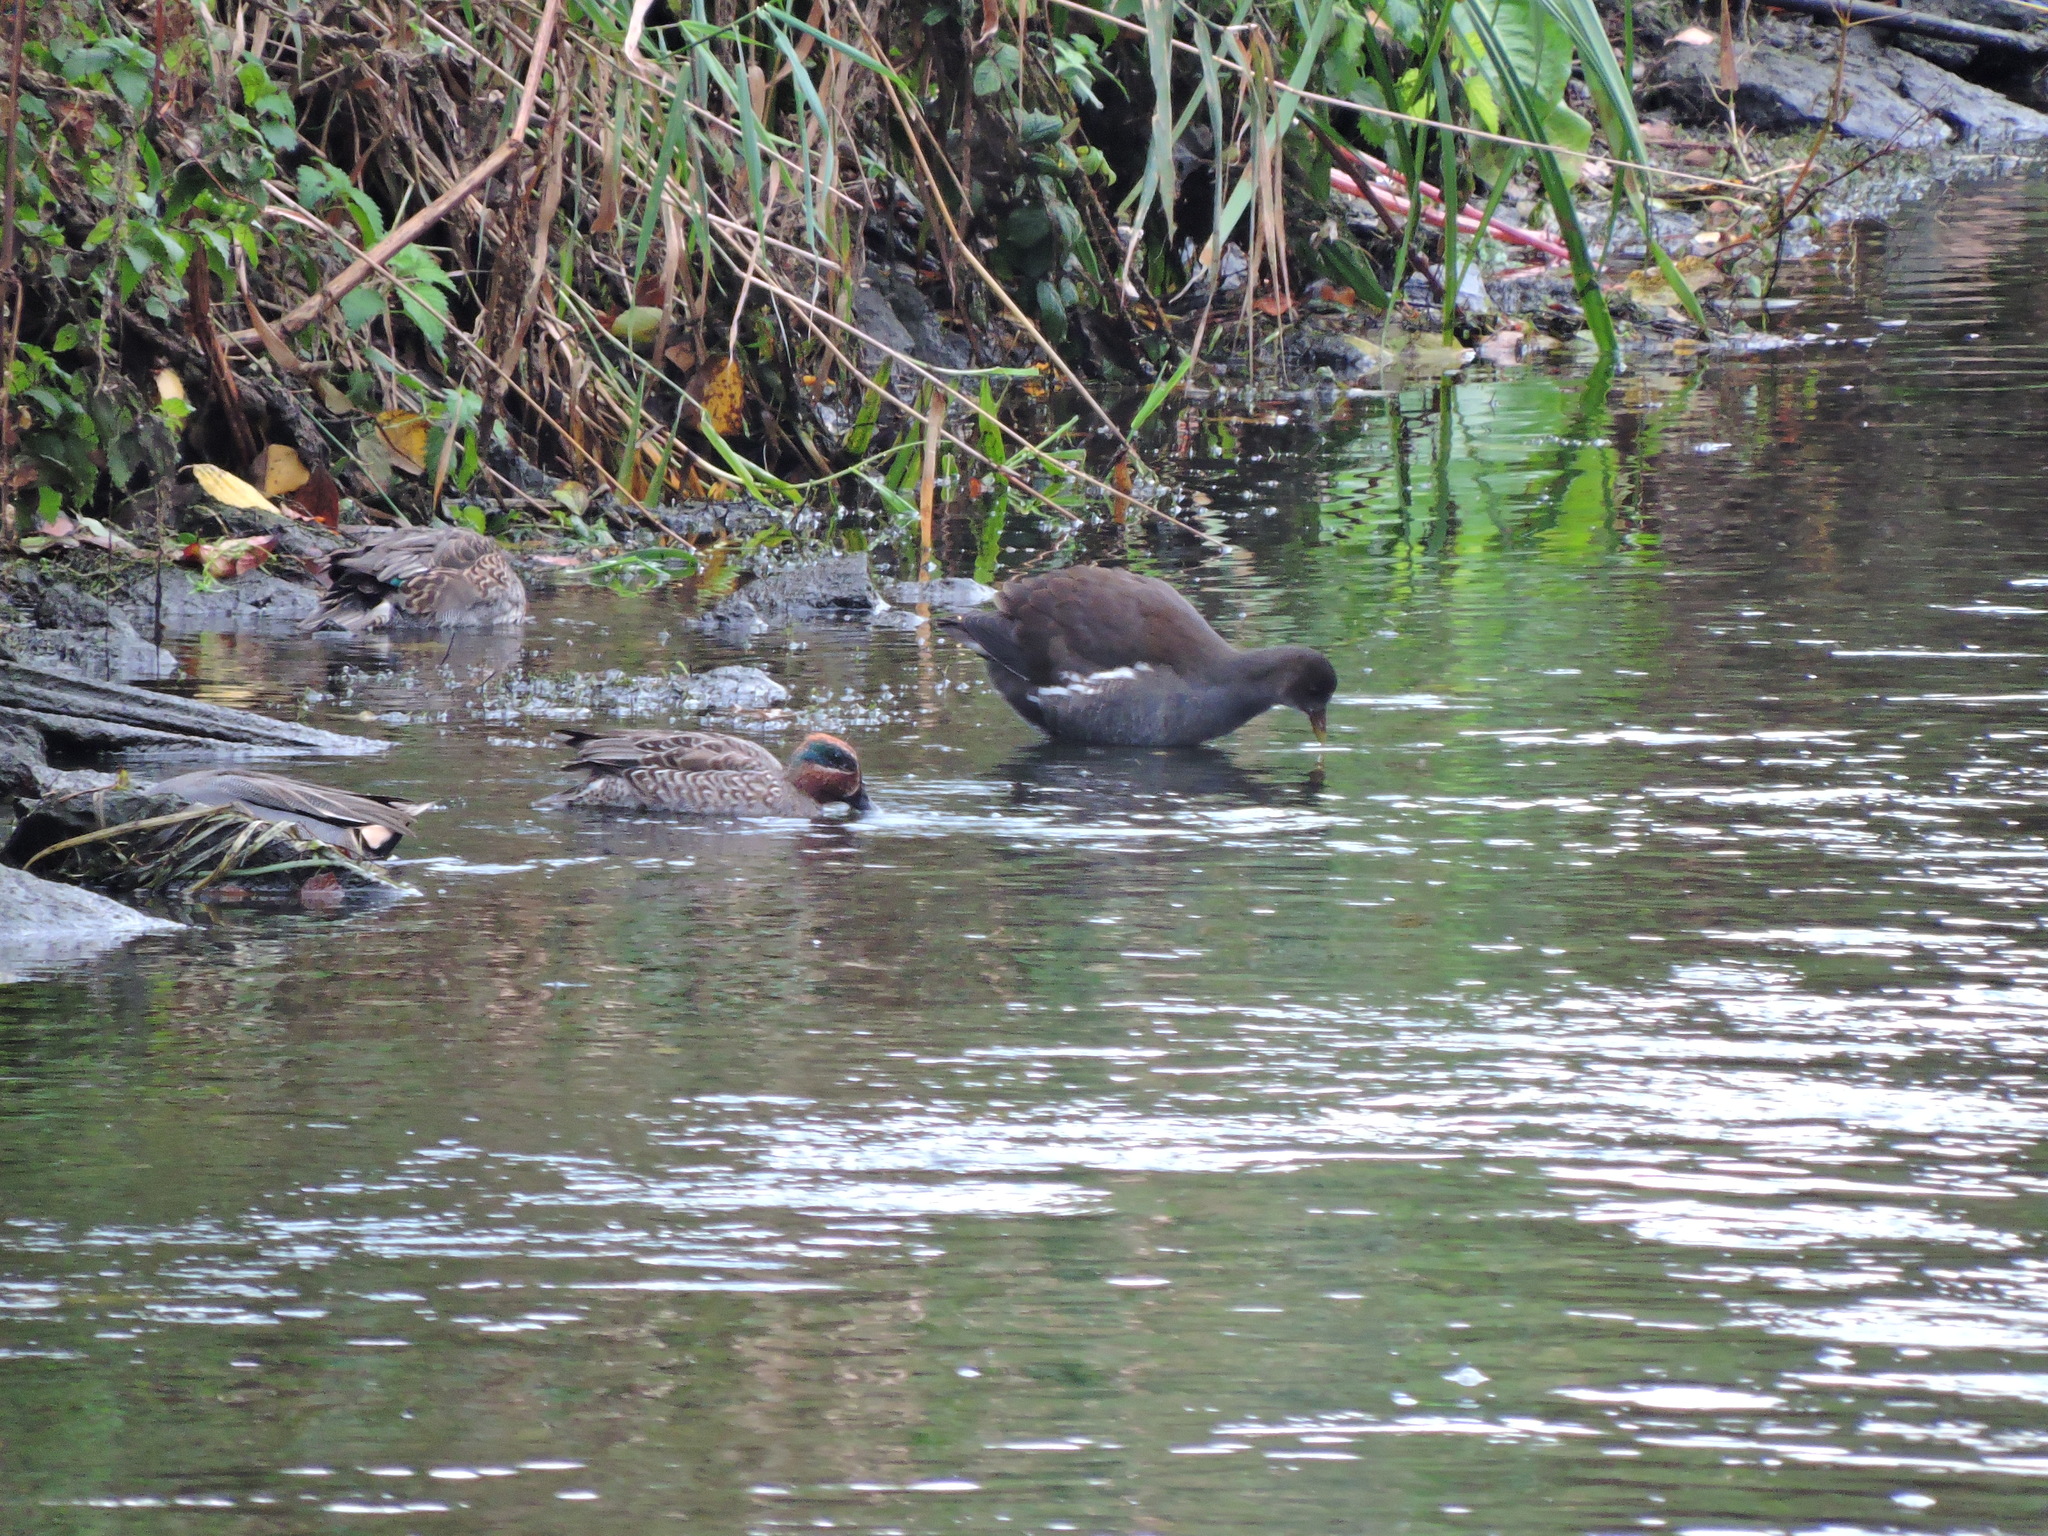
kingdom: Animalia
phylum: Chordata
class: Aves
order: Gruiformes
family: Rallidae
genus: Gallinula
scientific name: Gallinula chloropus
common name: Common moorhen
